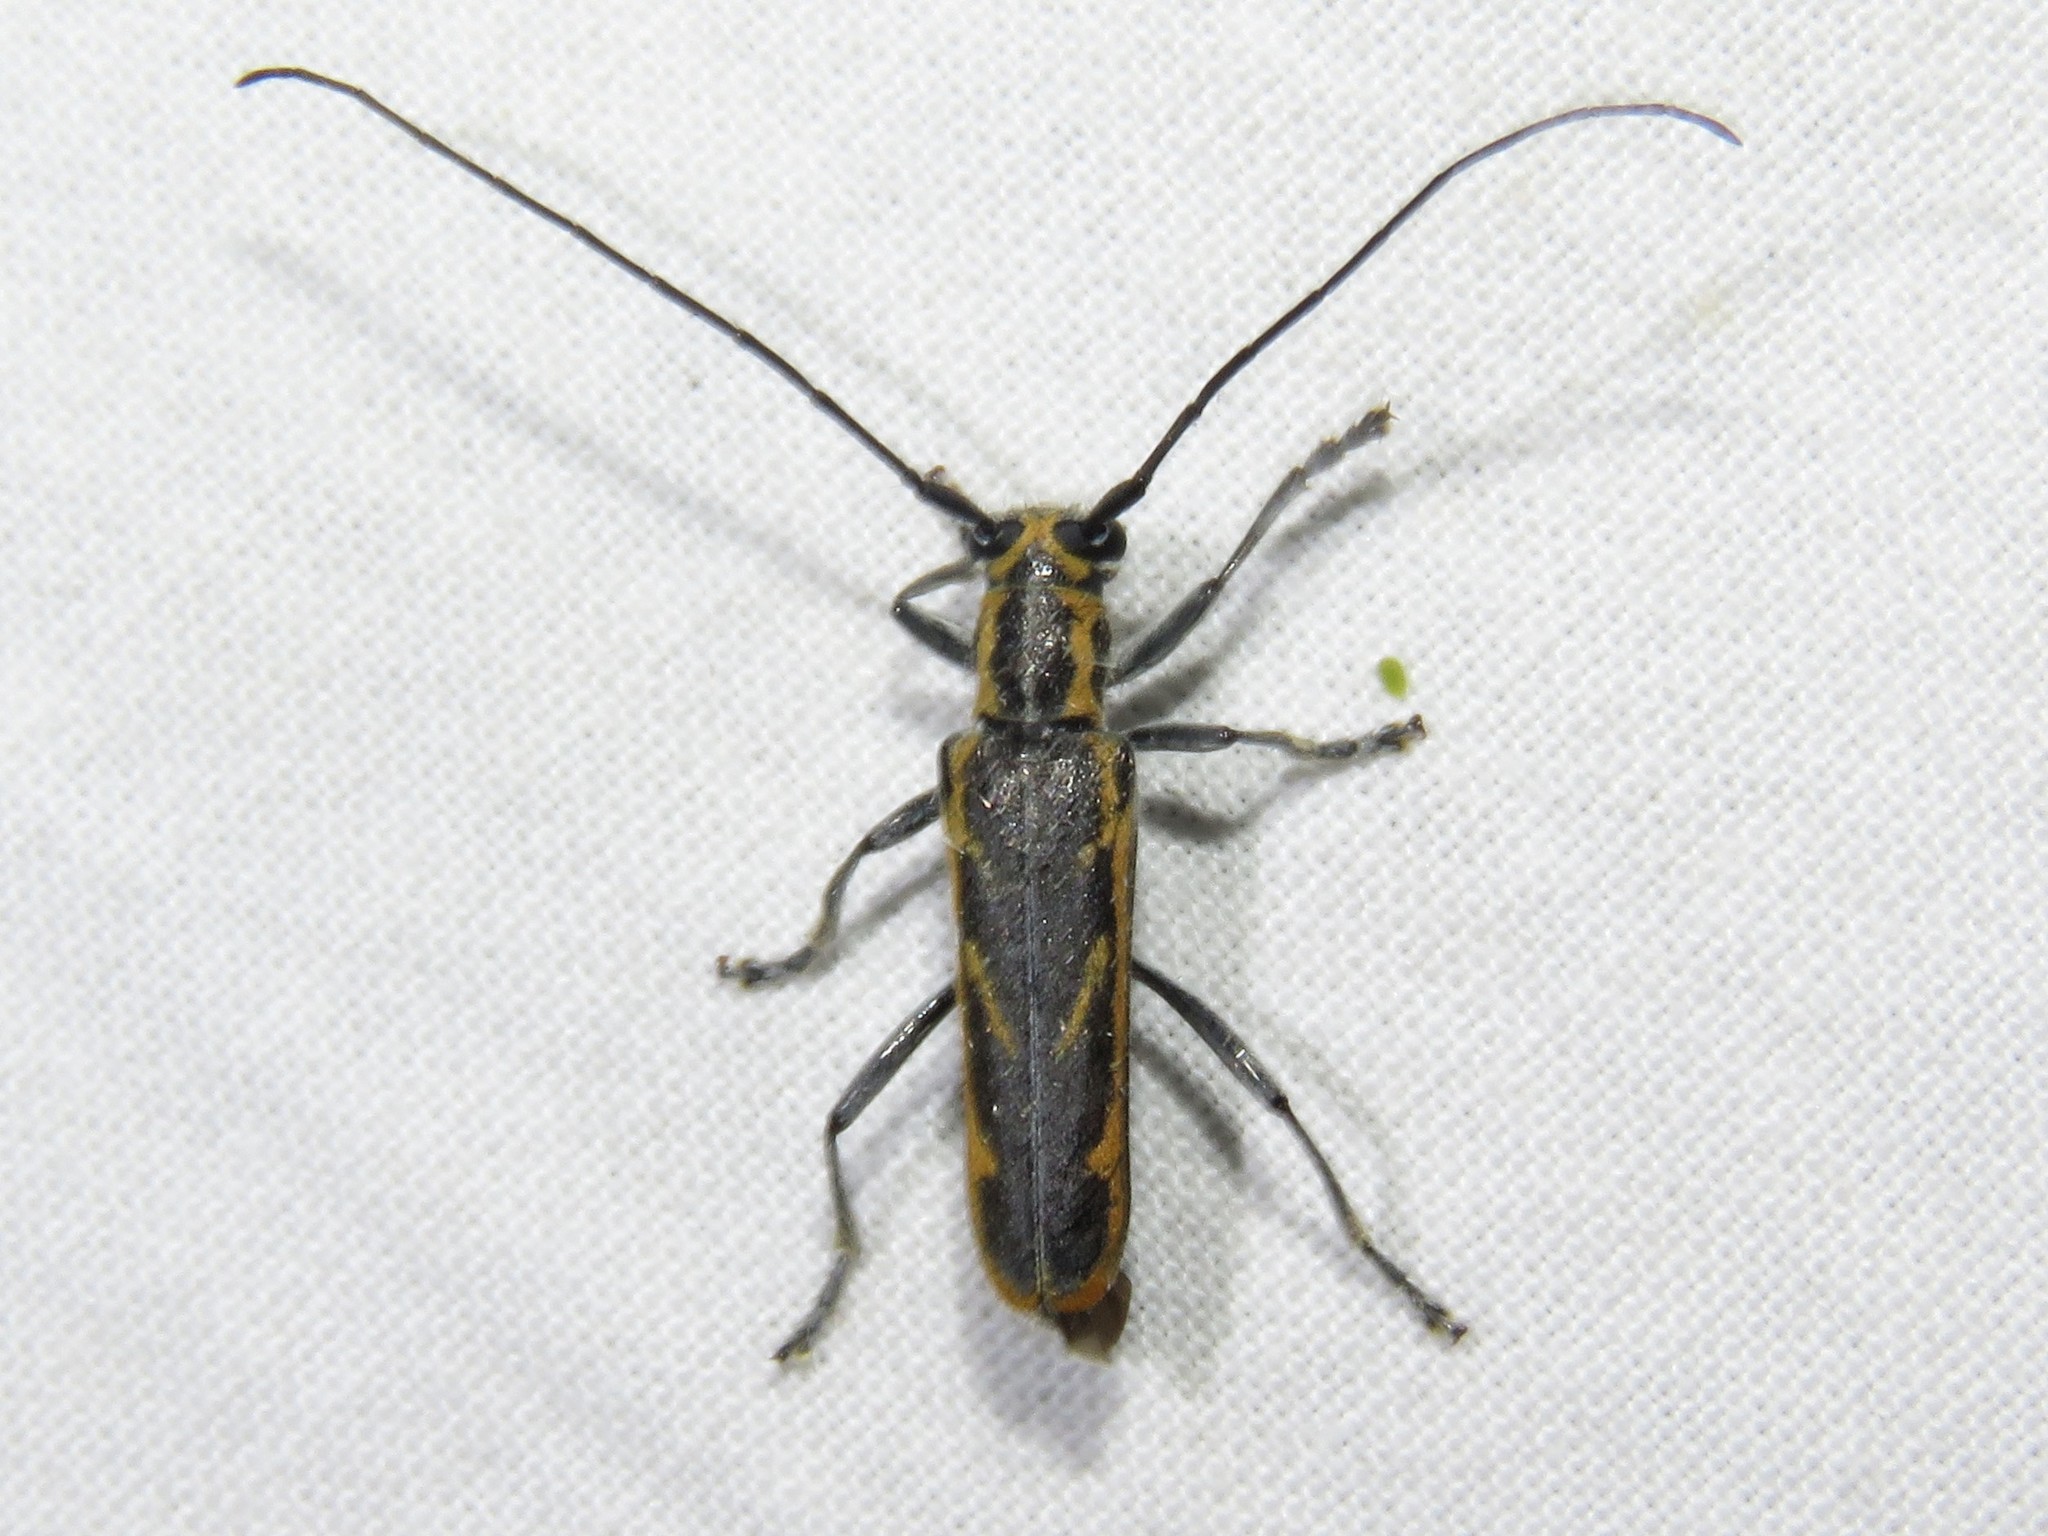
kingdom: Animalia
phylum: Arthropoda
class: Insecta
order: Coleoptera
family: Cerambycidae
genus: Saperda
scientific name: Saperda imitans
